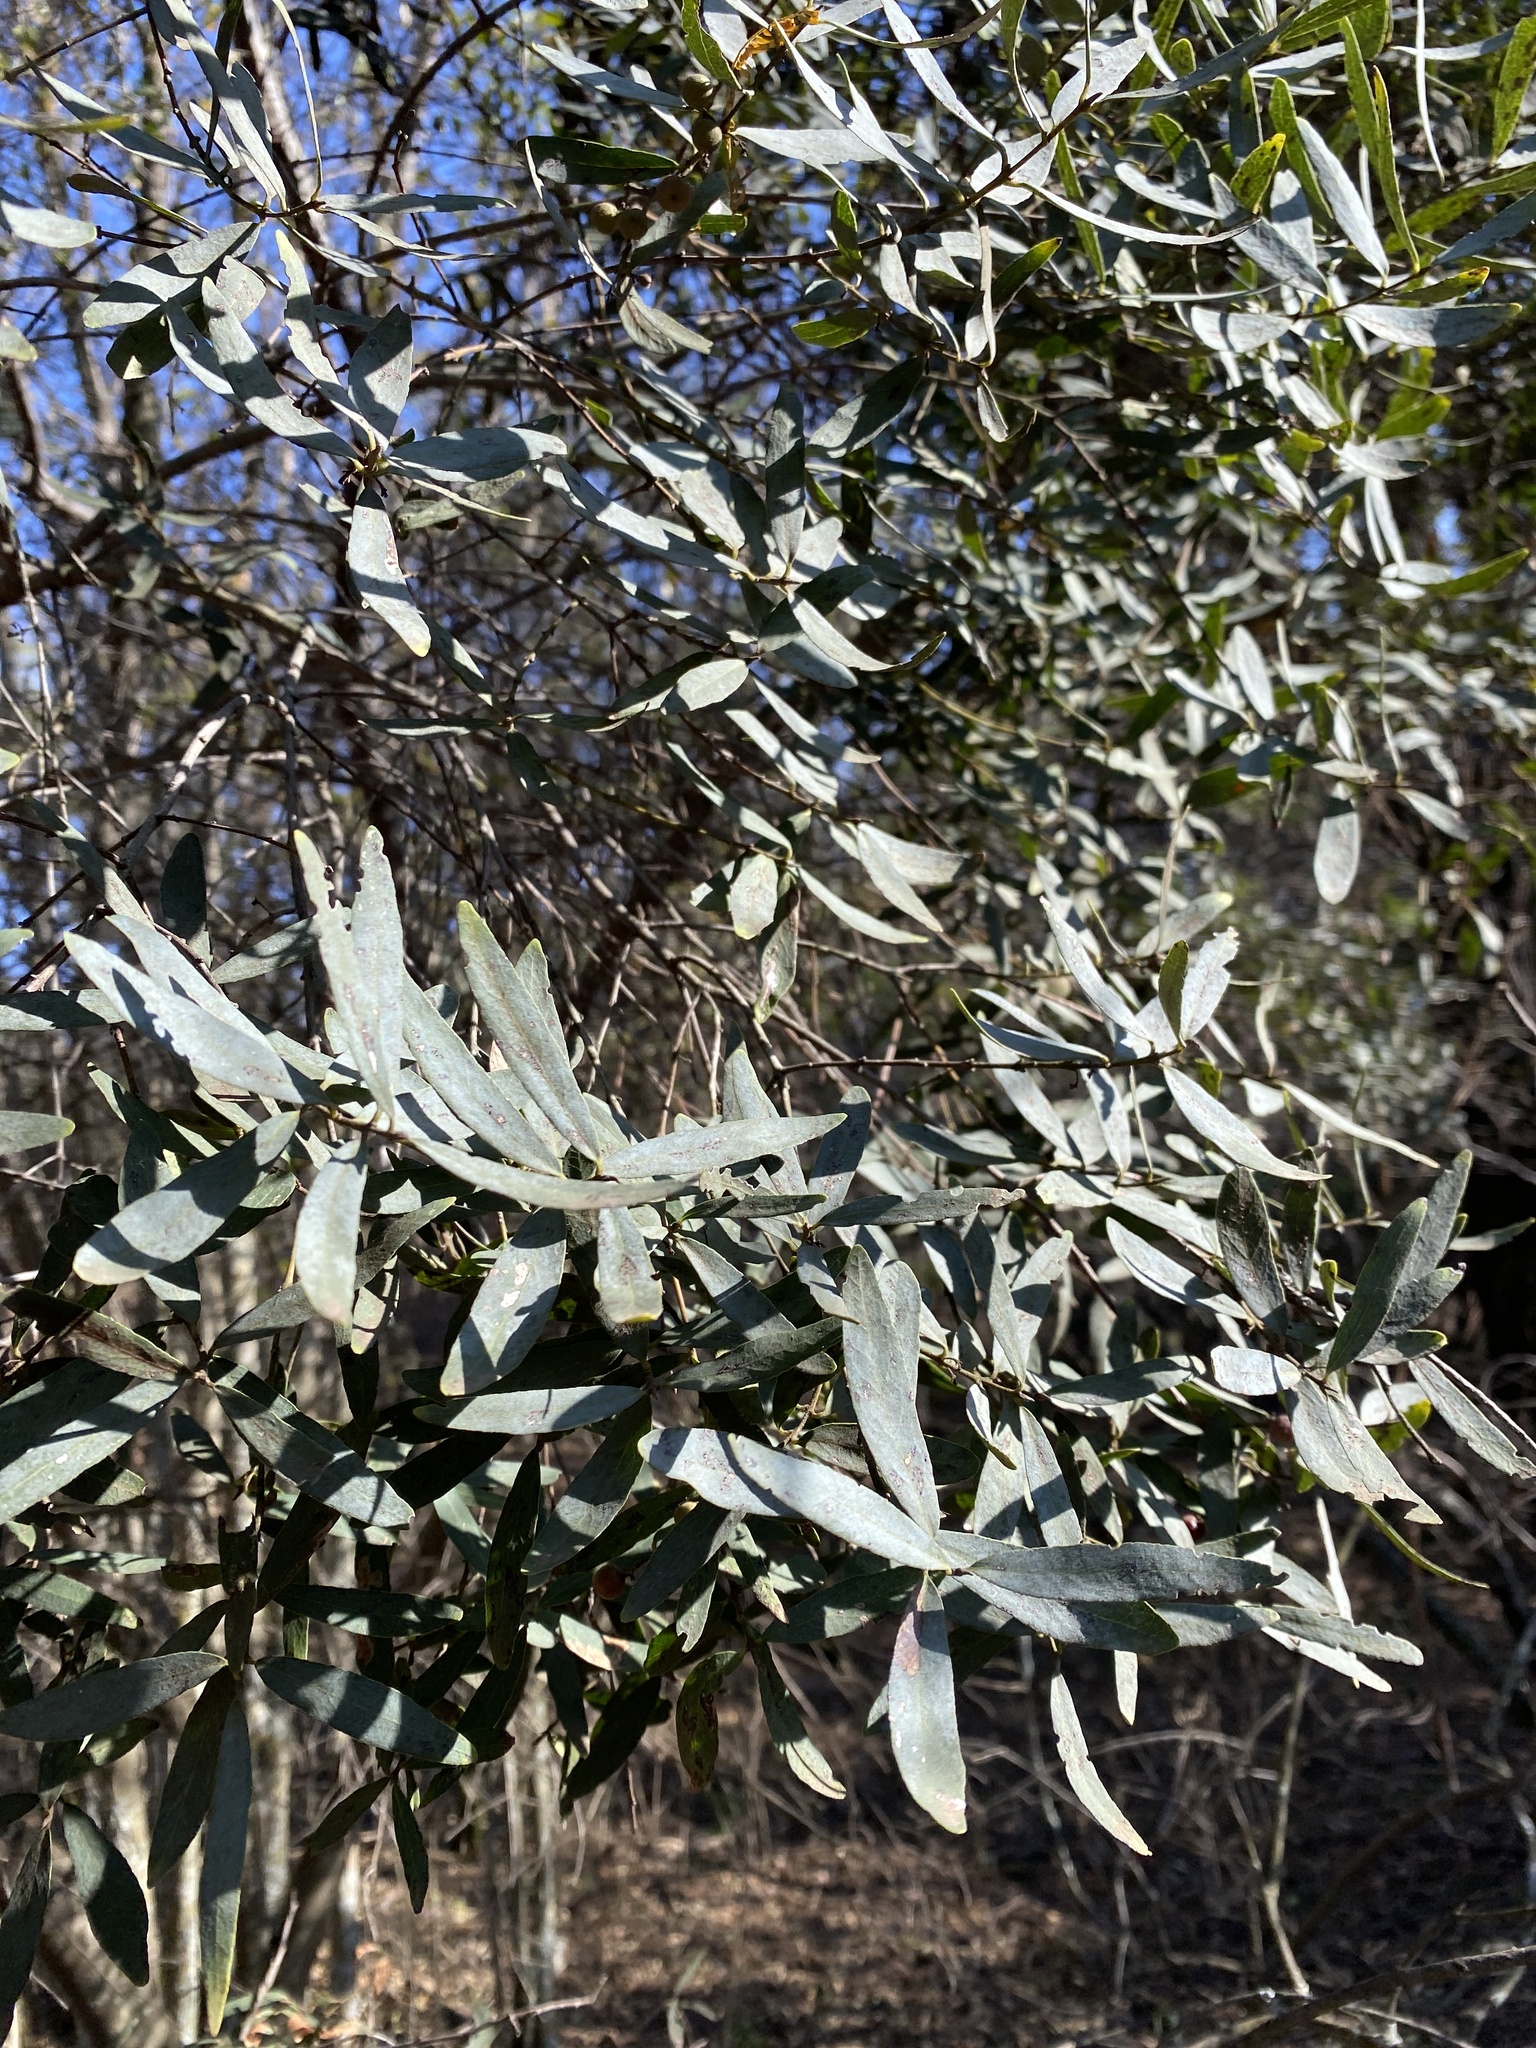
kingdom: Plantae
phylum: Tracheophyta
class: Magnoliopsida
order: Ericales
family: Ebenaceae
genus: Euclea
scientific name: Euclea crispa
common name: Blue guarri
